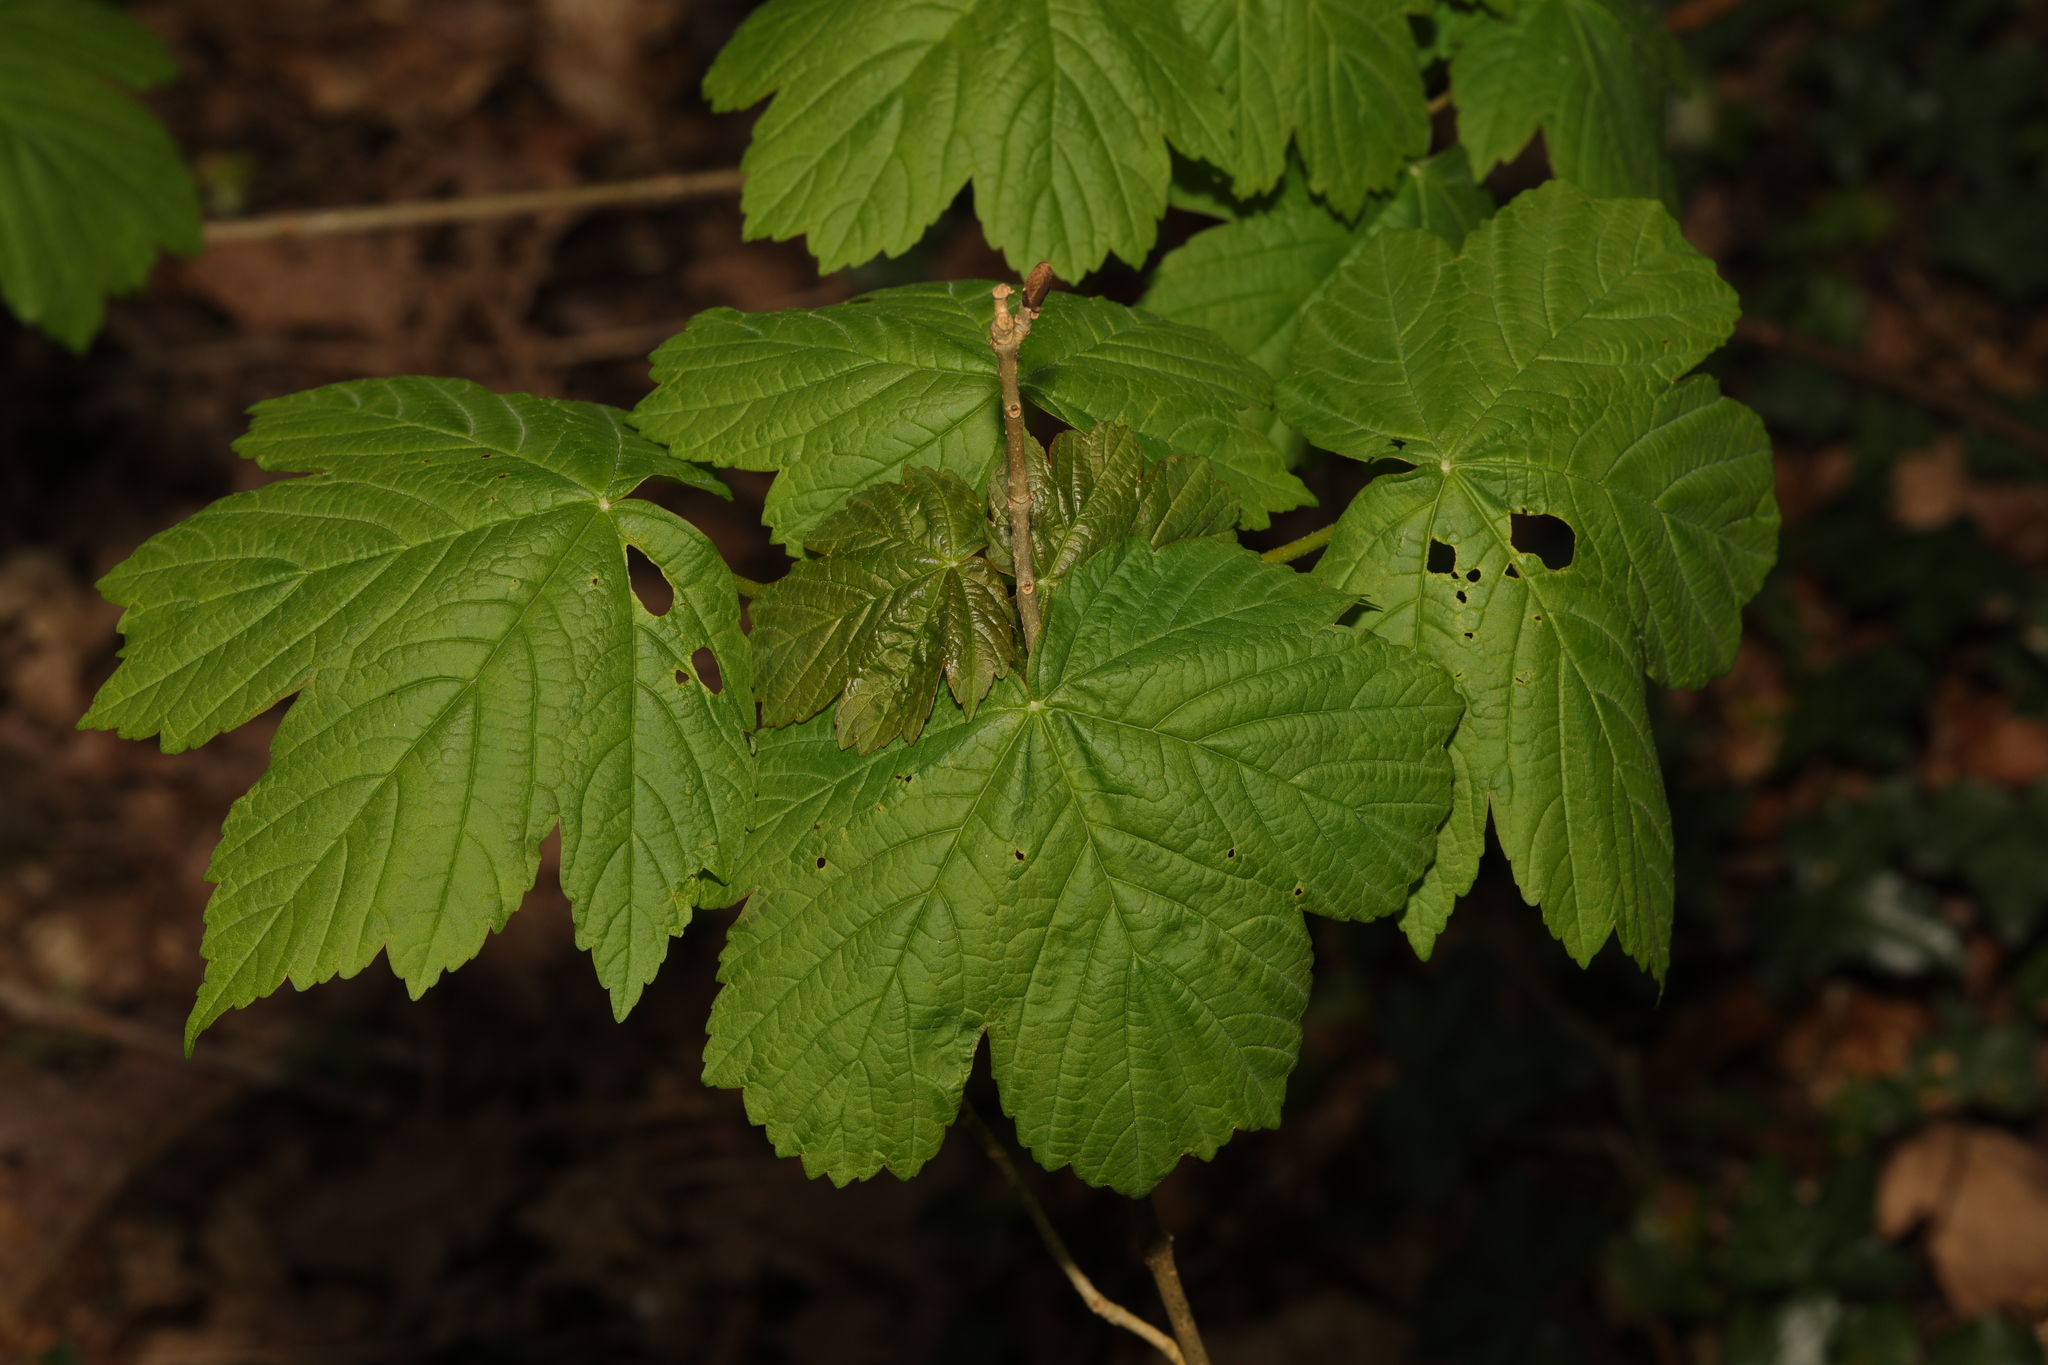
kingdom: Plantae
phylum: Tracheophyta
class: Magnoliopsida
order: Sapindales
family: Sapindaceae
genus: Acer
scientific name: Acer pseudoplatanus
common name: Sycamore
